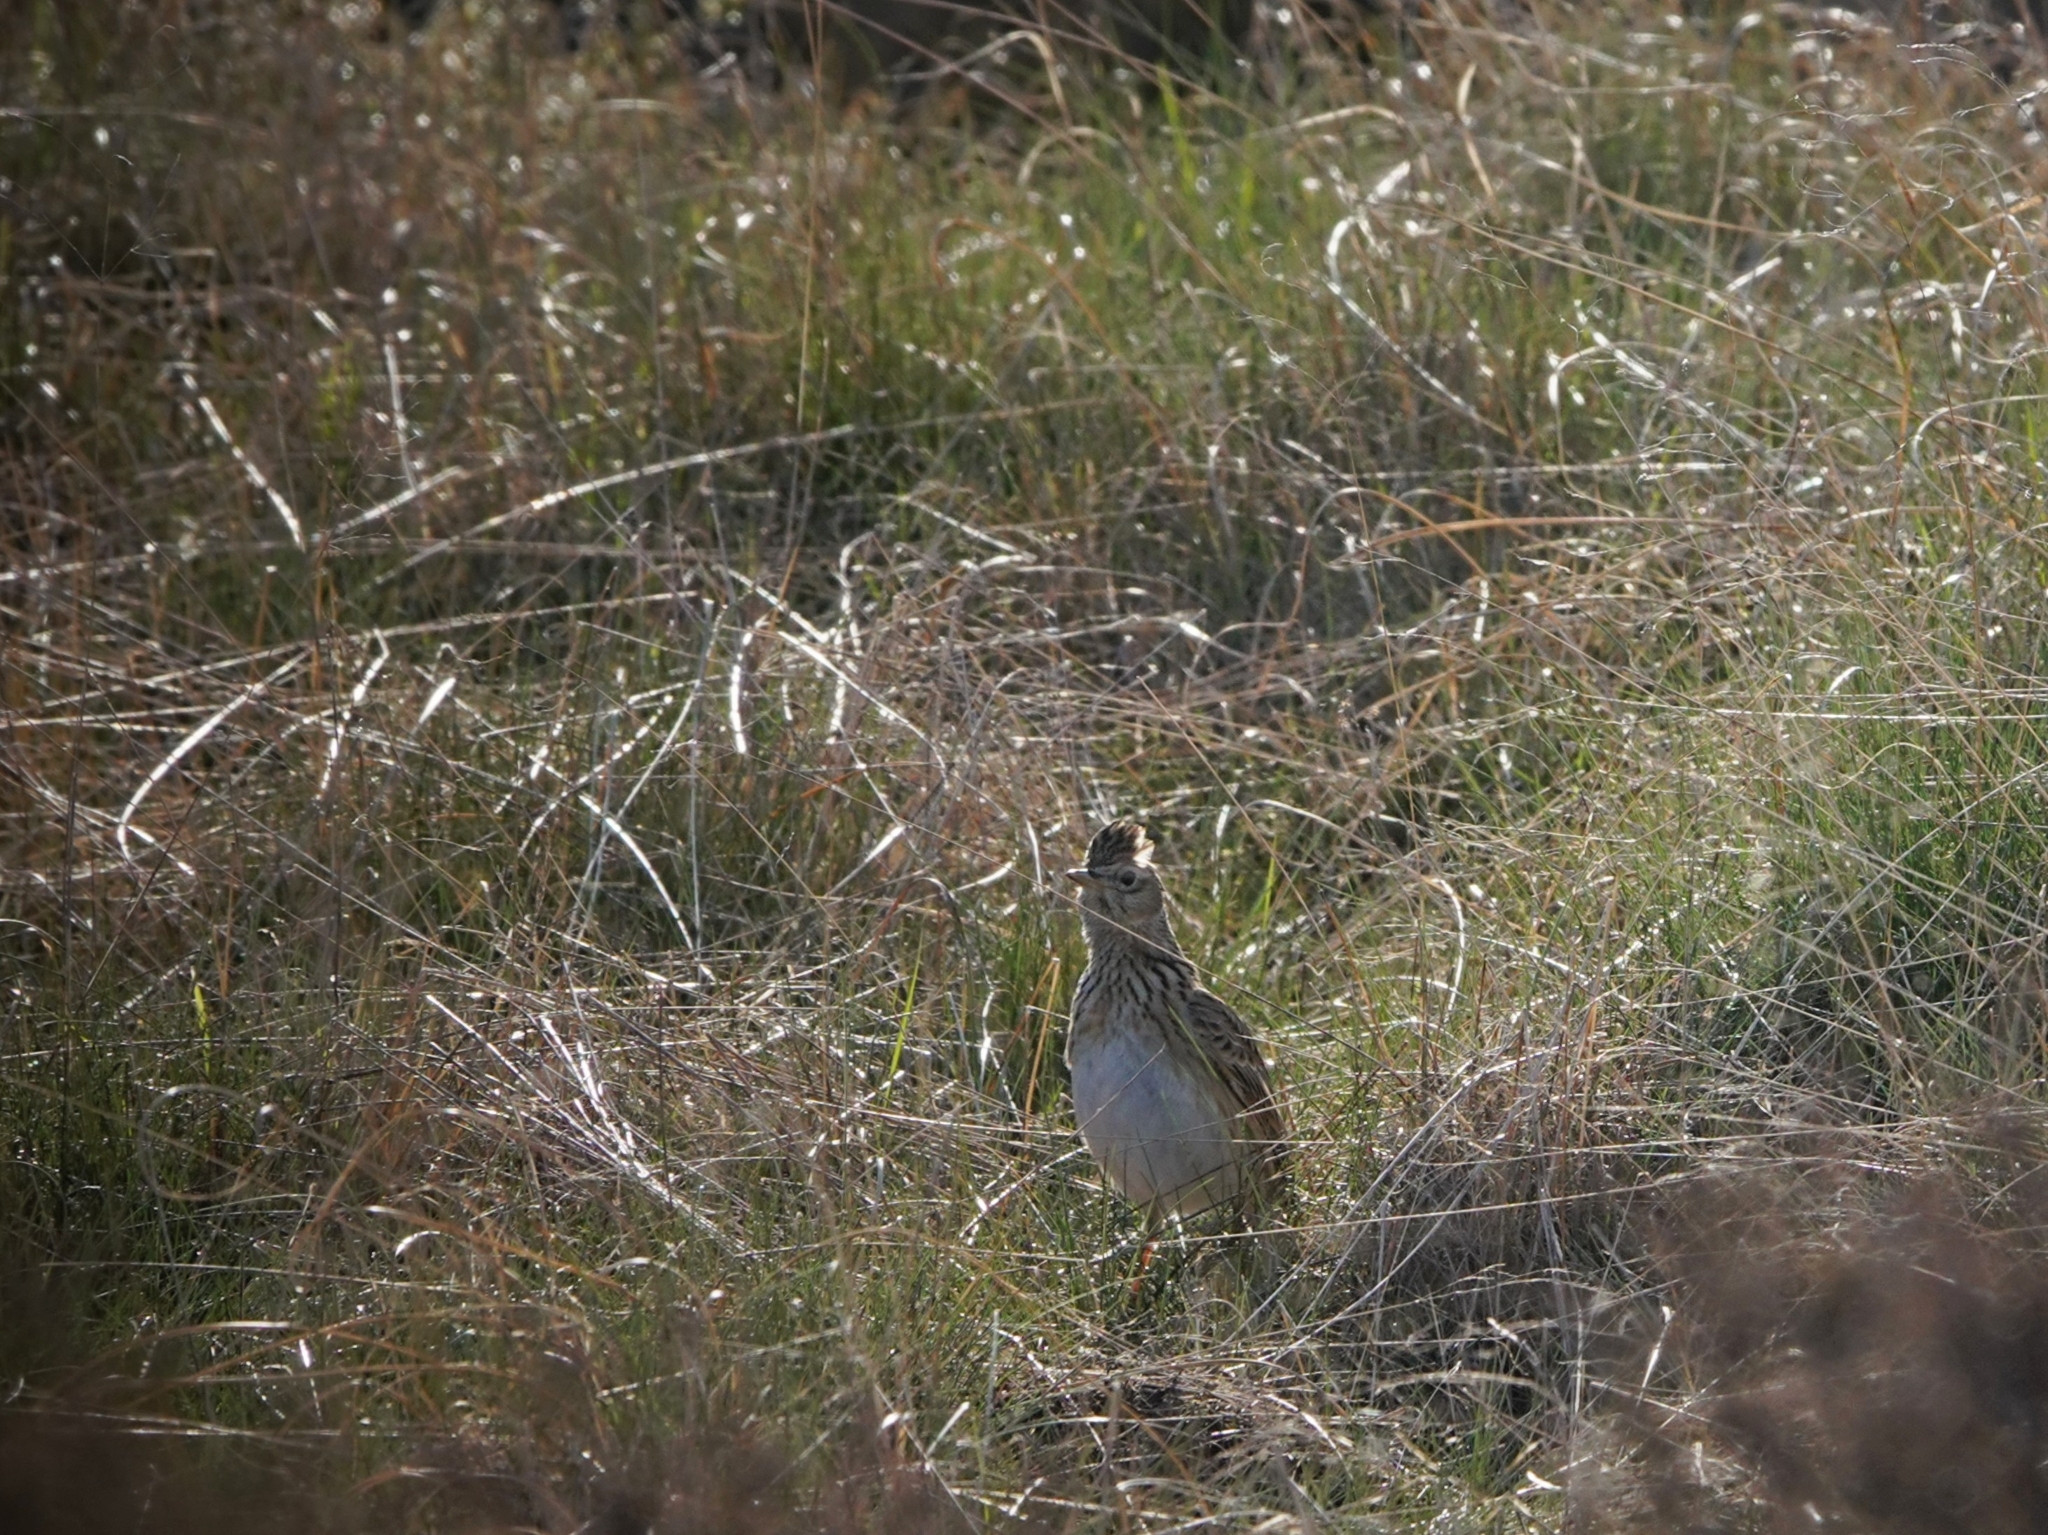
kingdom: Animalia
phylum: Chordata
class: Aves
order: Passeriformes
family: Alaudidae
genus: Alauda
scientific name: Alauda arvensis
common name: Eurasian skylark
